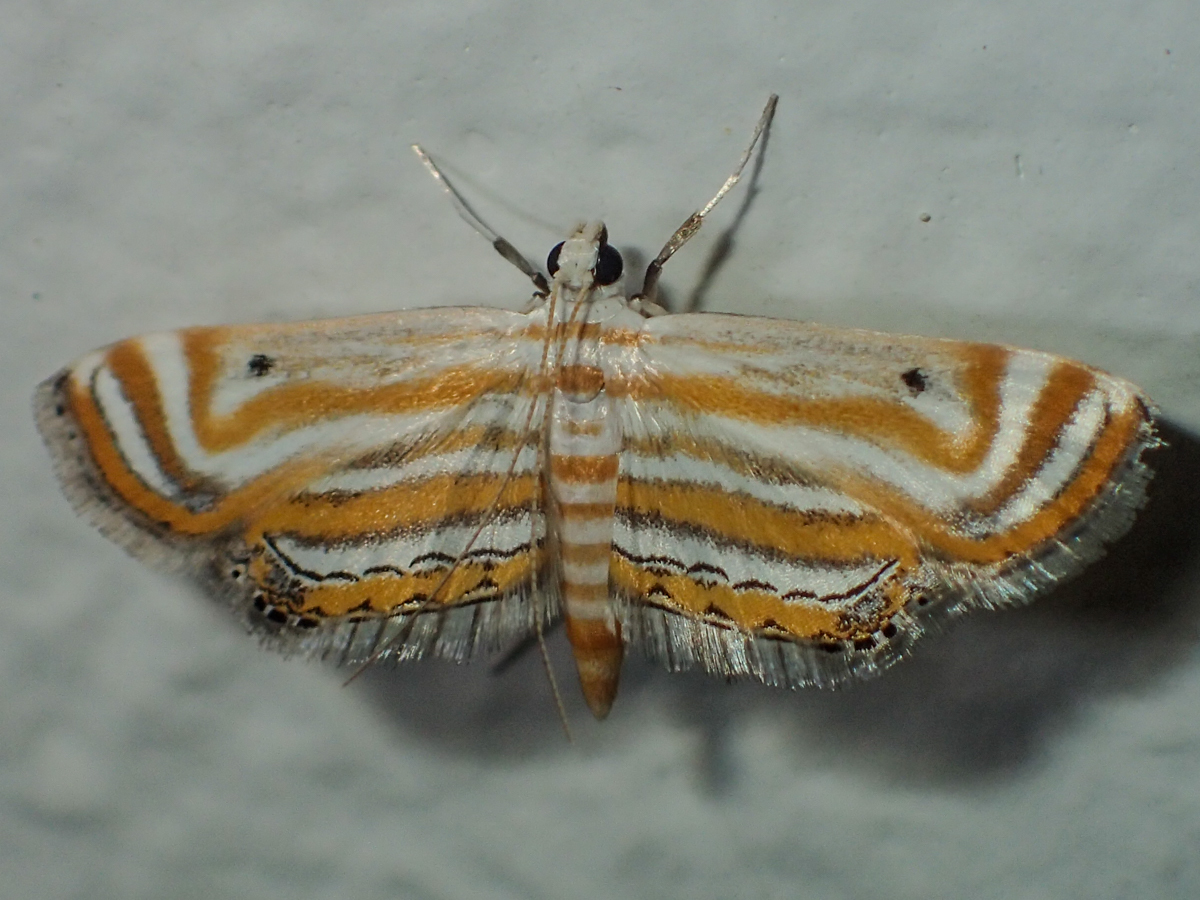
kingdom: Animalia
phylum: Arthropoda
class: Insecta
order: Lepidoptera
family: Crambidae
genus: Parapoynx
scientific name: Parapoynx villidalis
